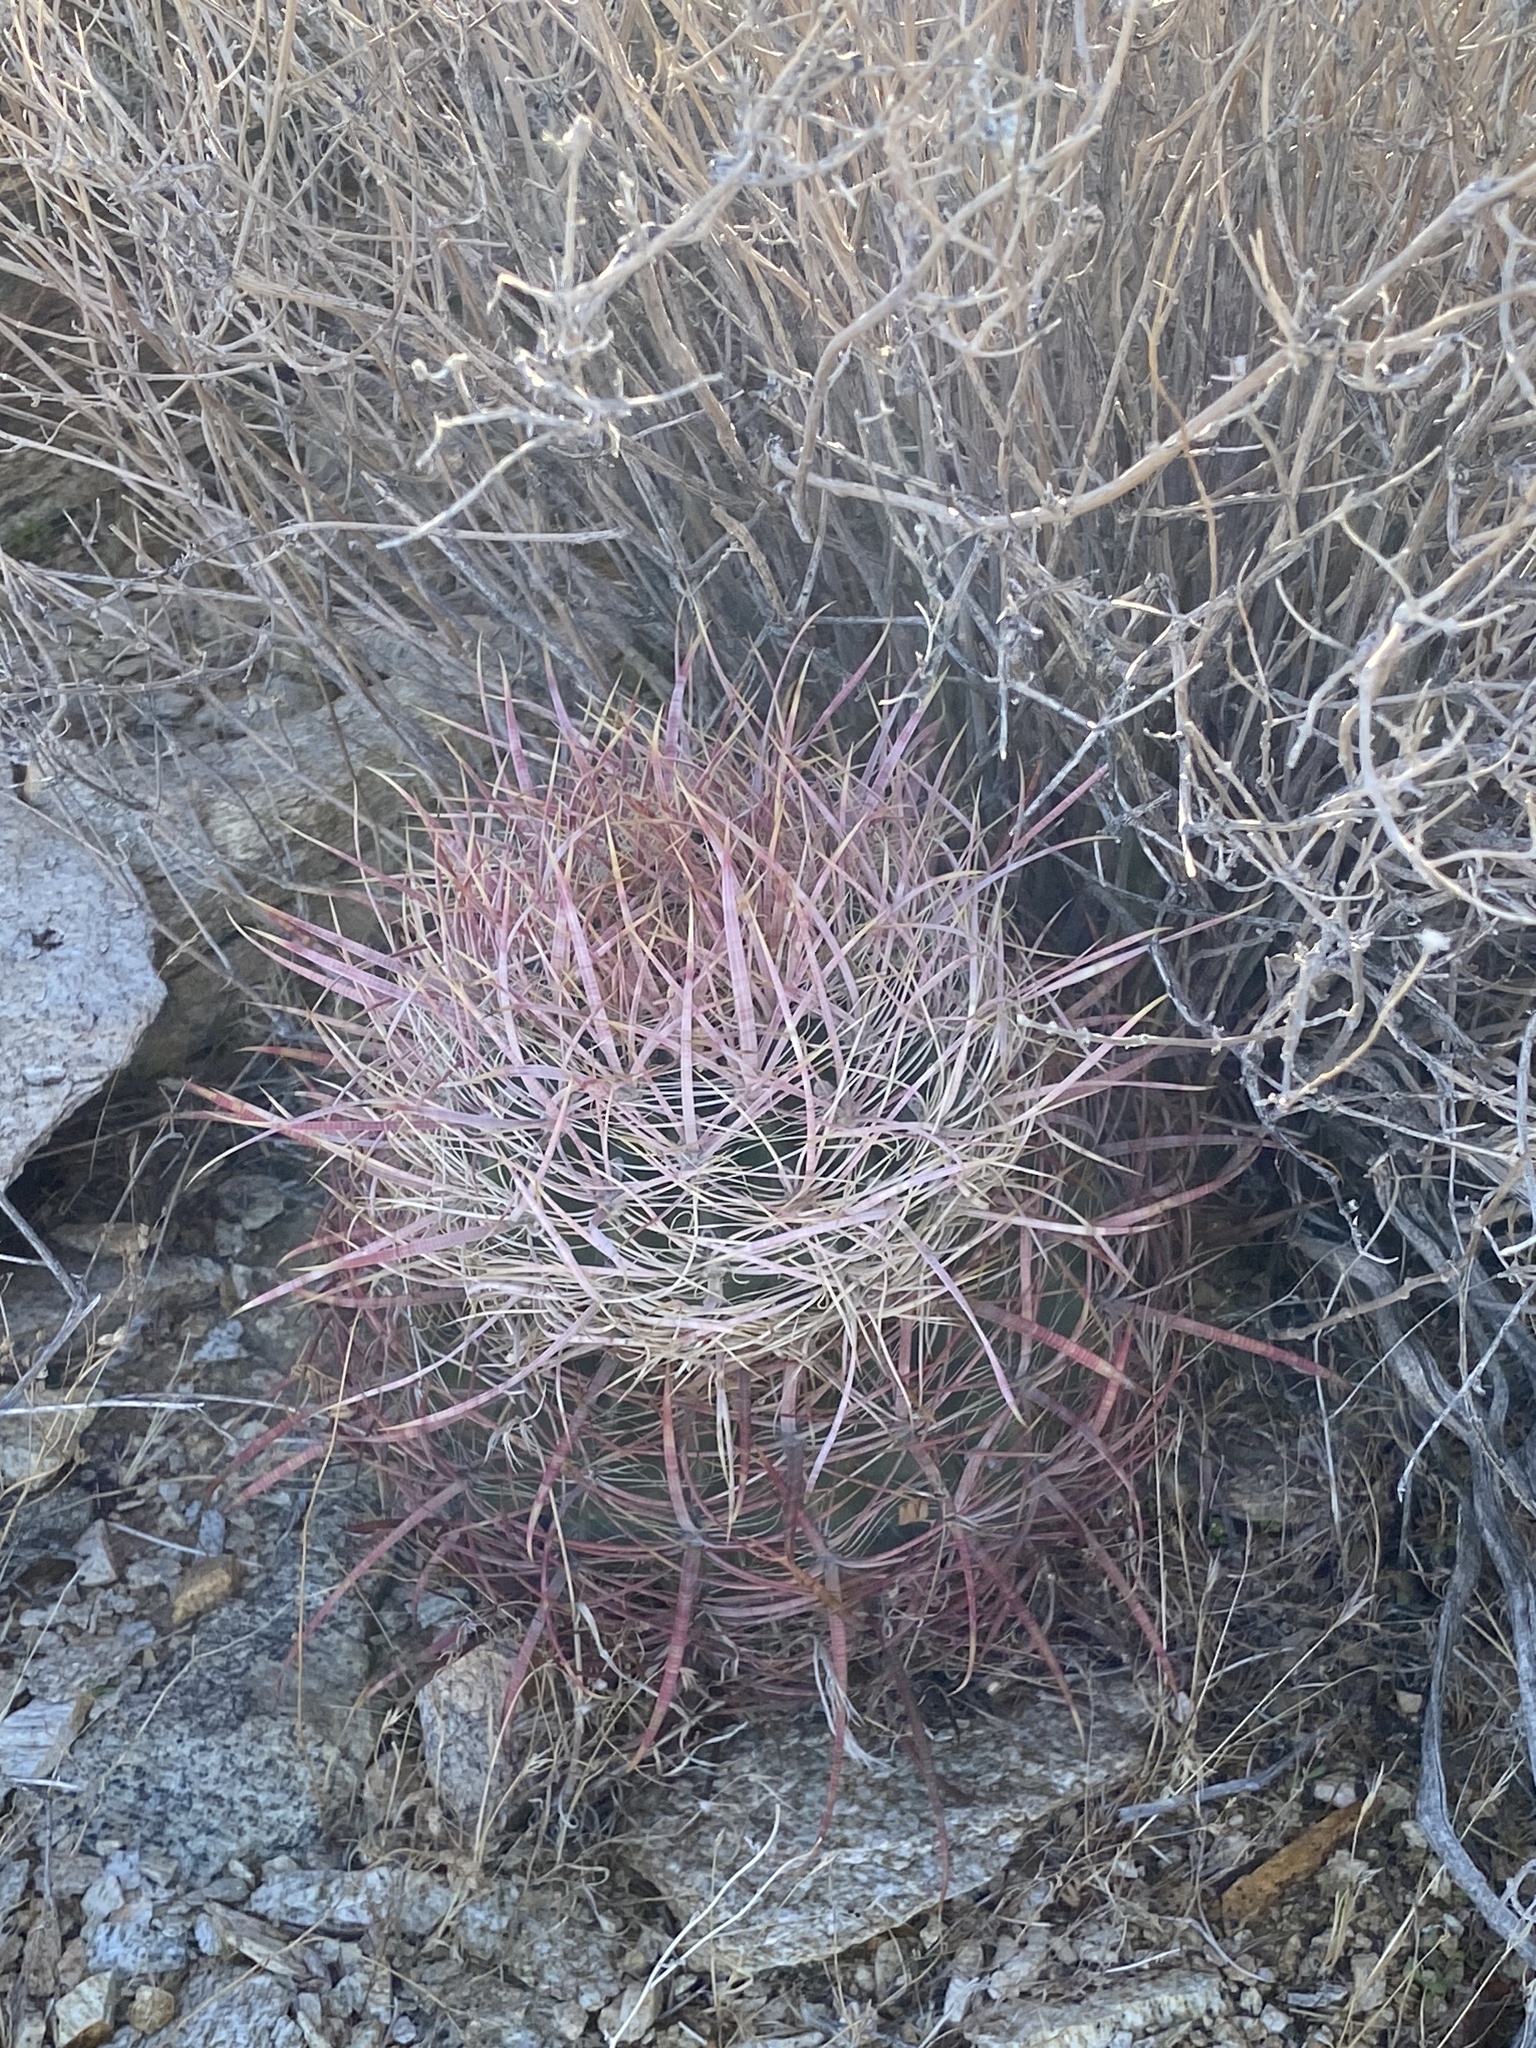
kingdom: Plantae
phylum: Tracheophyta
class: Magnoliopsida
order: Caryophyllales
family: Cactaceae
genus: Ferocactus
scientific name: Ferocactus cylindraceus
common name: California barrel cactus
